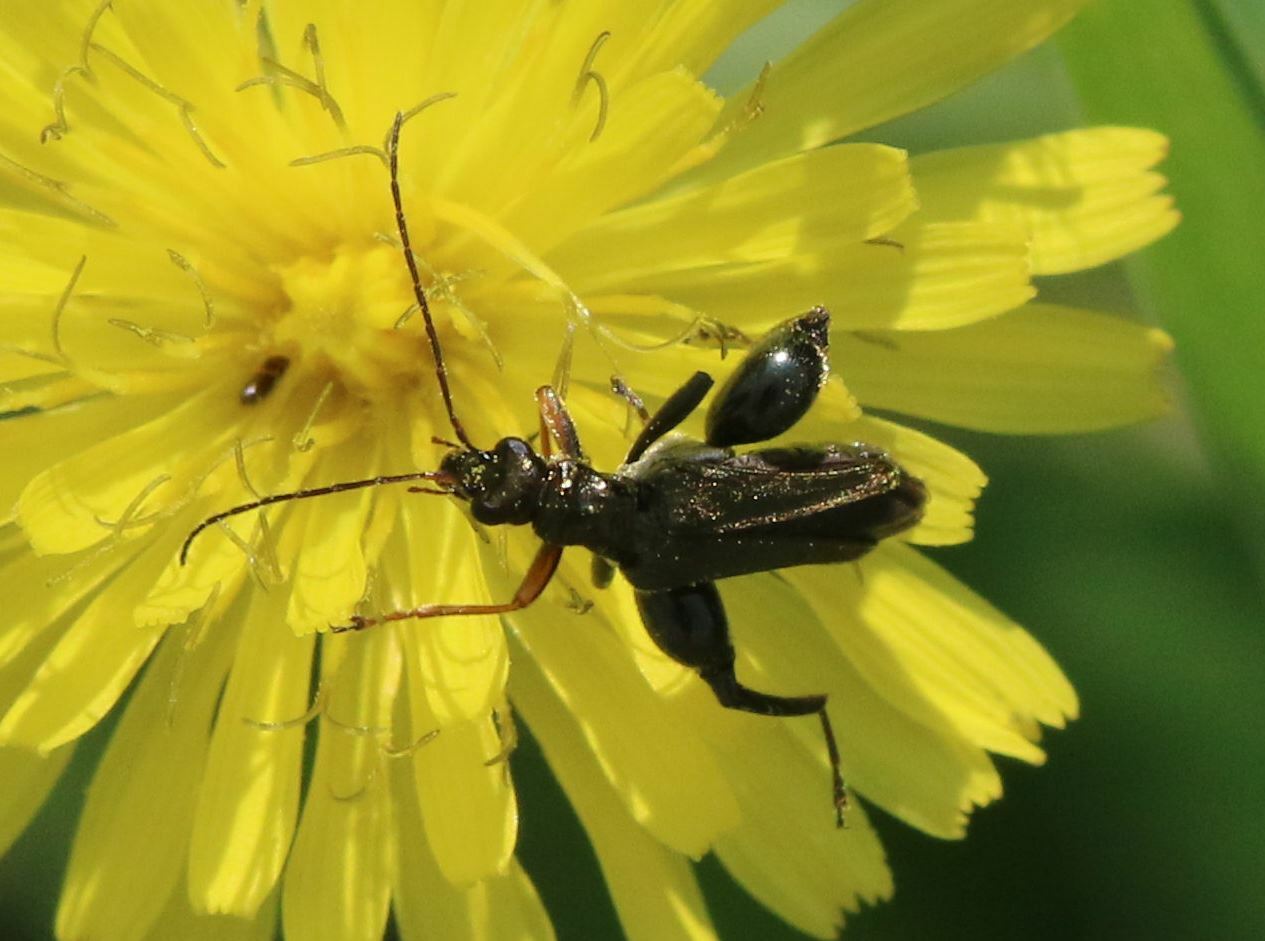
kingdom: Animalia
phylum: Arthropoda
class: Insecta
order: Coleoptera
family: Oedemeridae
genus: Oedemera
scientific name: Oedemera flavipes
